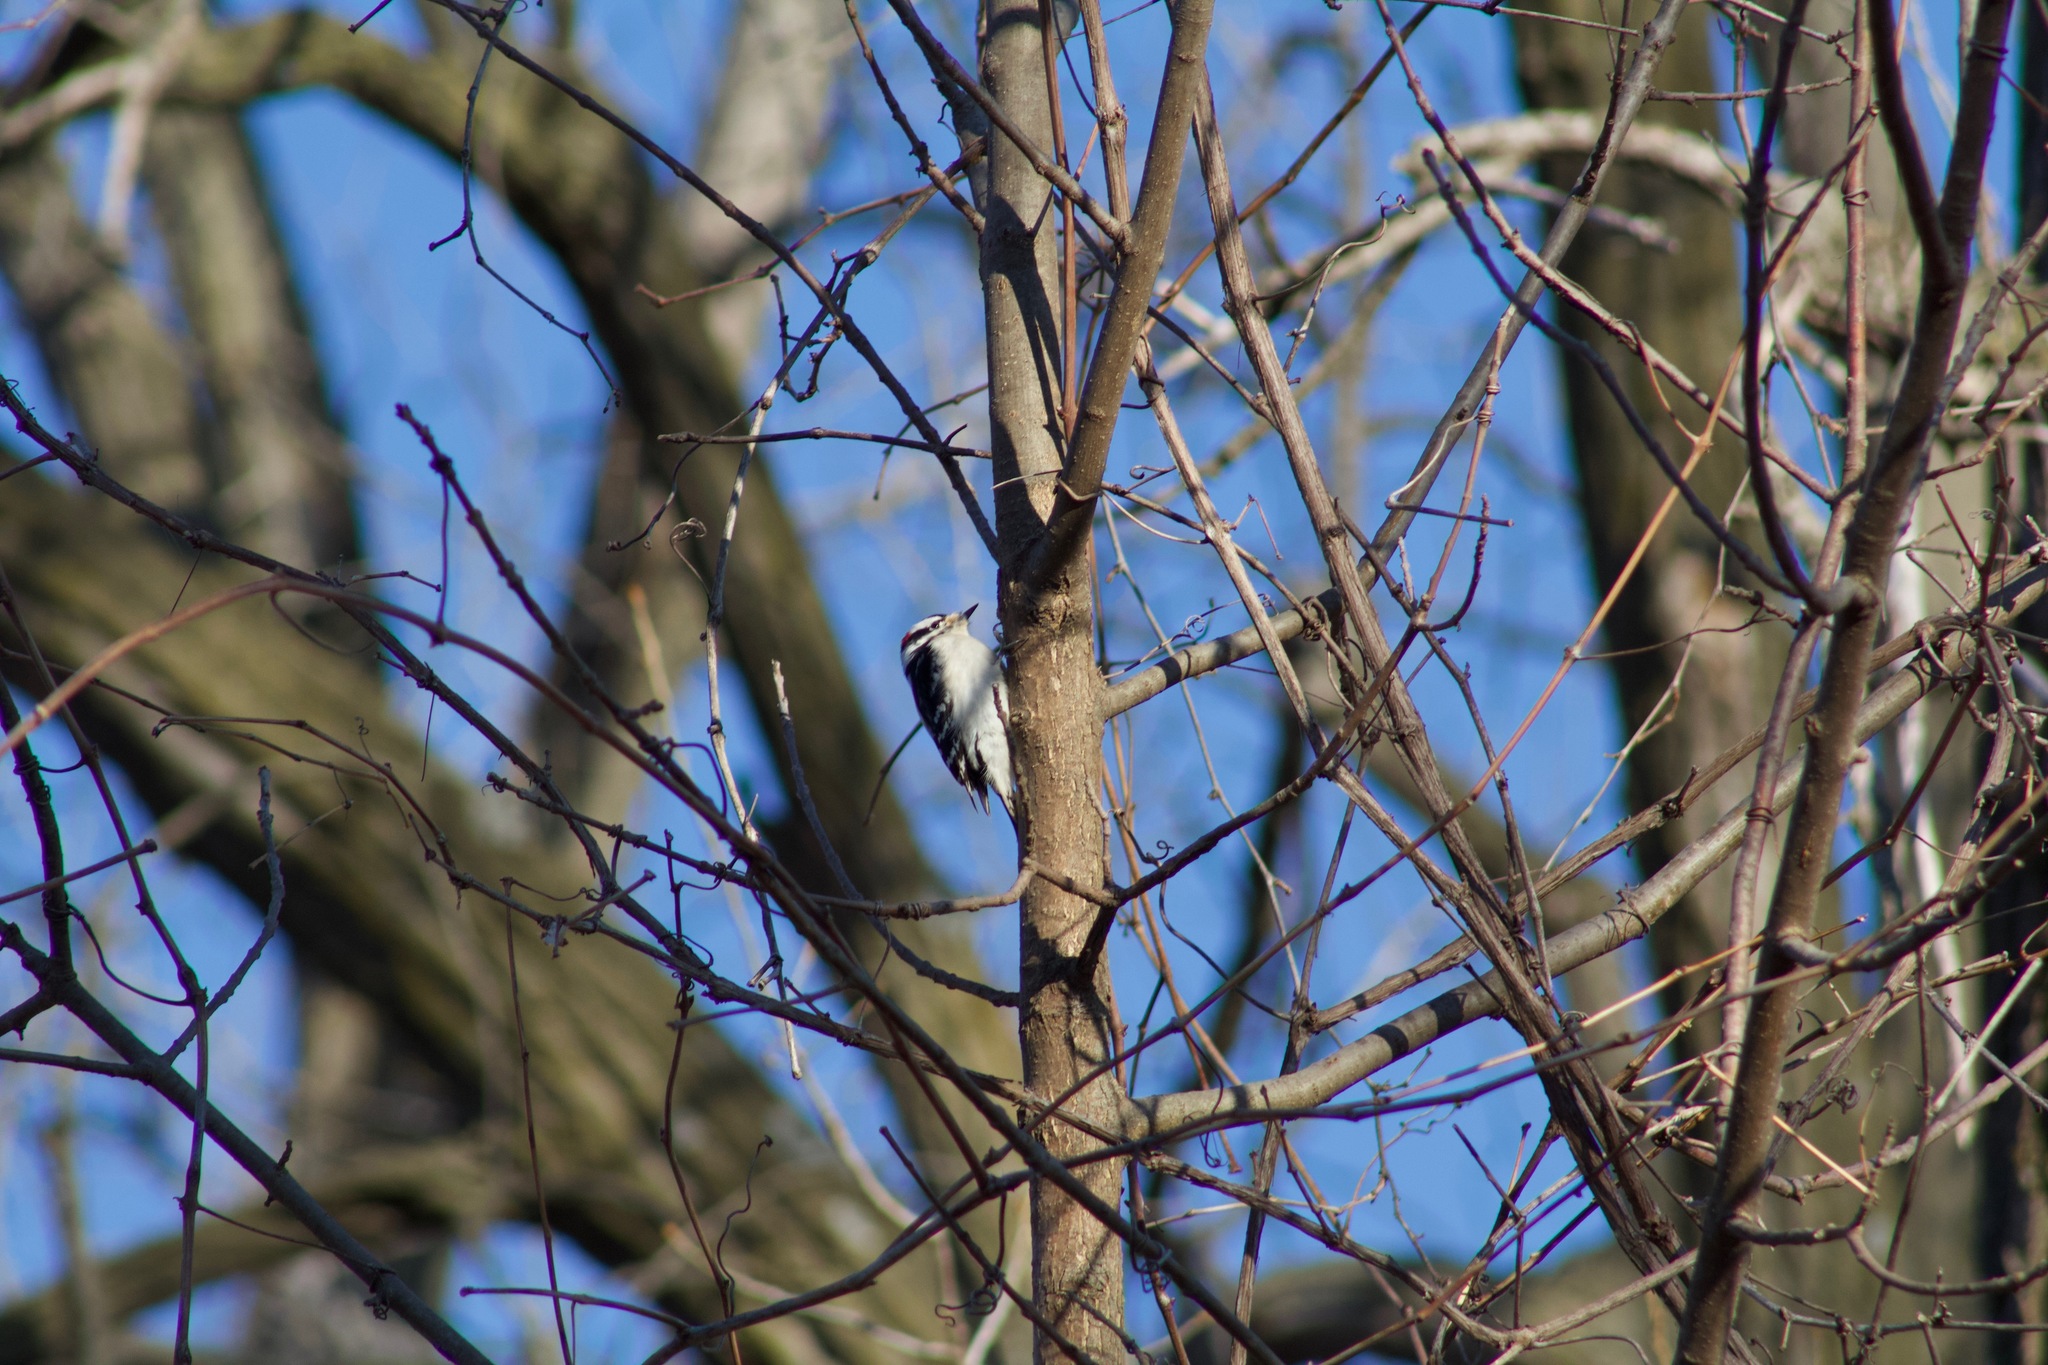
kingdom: Animalia
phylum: Chordata
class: Aves
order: Piciformes
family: Picidae
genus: Dryobates
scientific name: Dryobates pubescens
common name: Downy woodpecker
